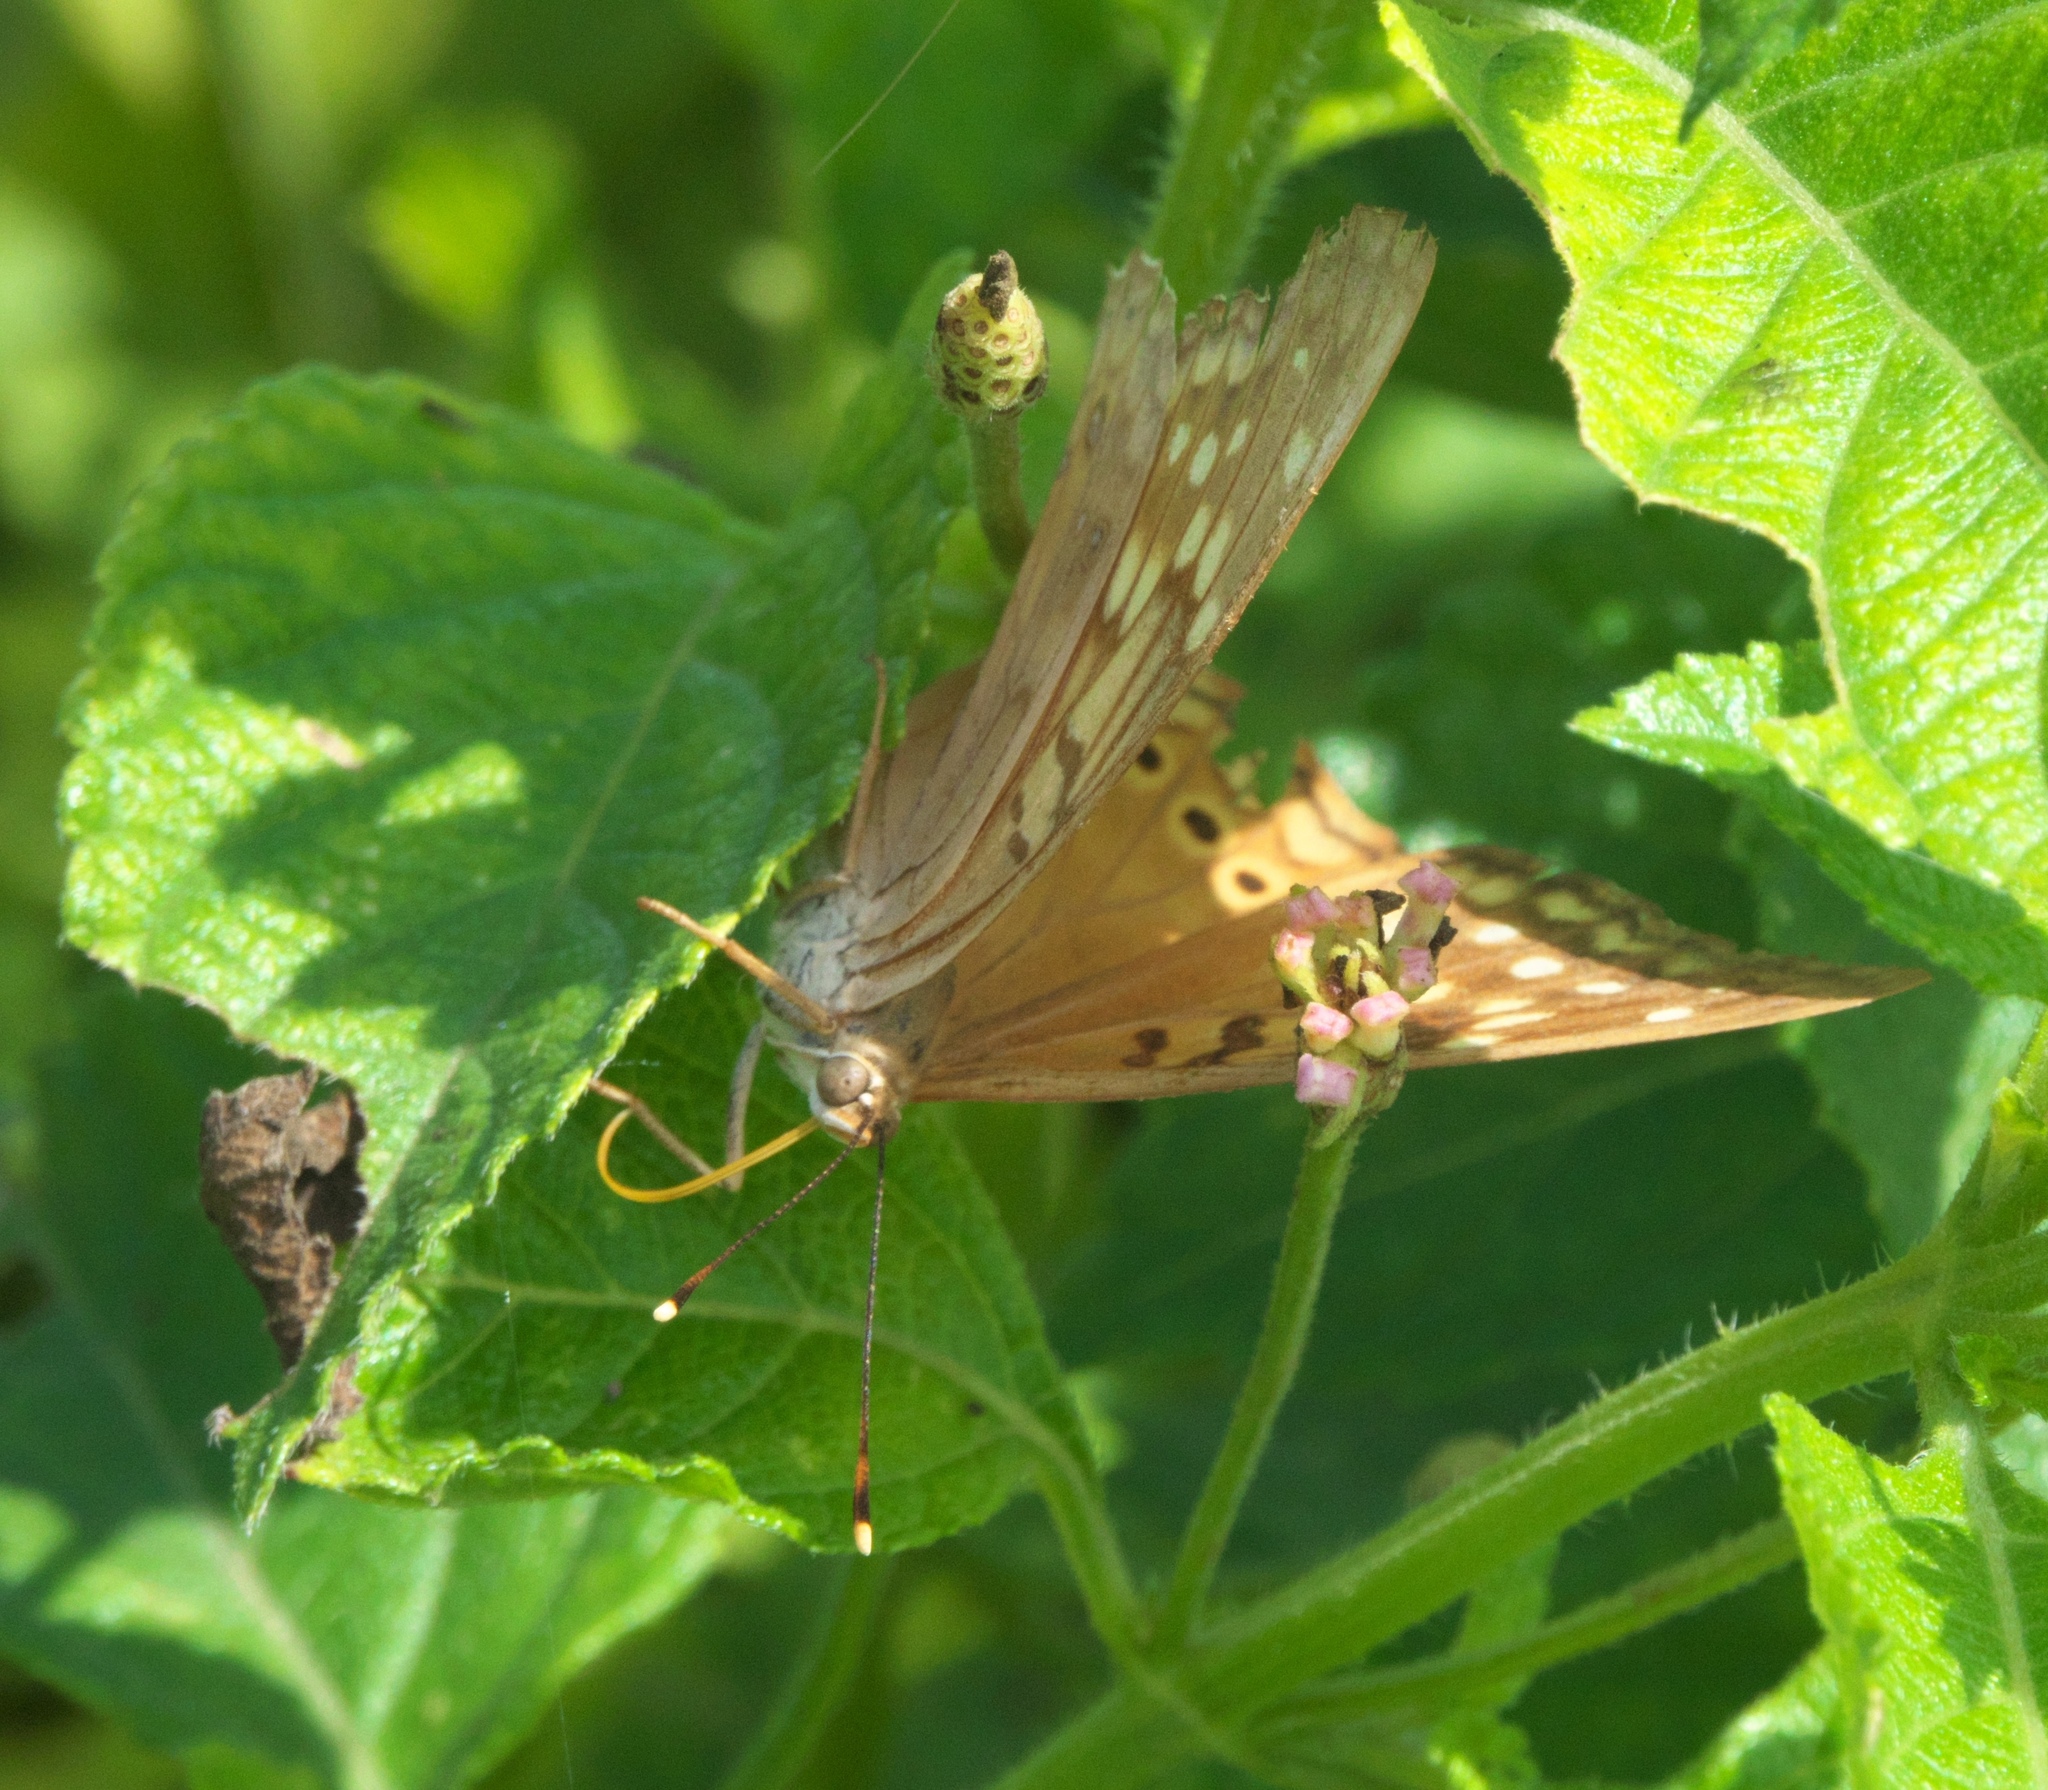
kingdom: Animalia
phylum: Arthropoda
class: Insecta
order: Lepidoptera
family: Nymphalidae
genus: Asterocampa
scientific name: Asterocampa clyton
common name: Tawny emperor
